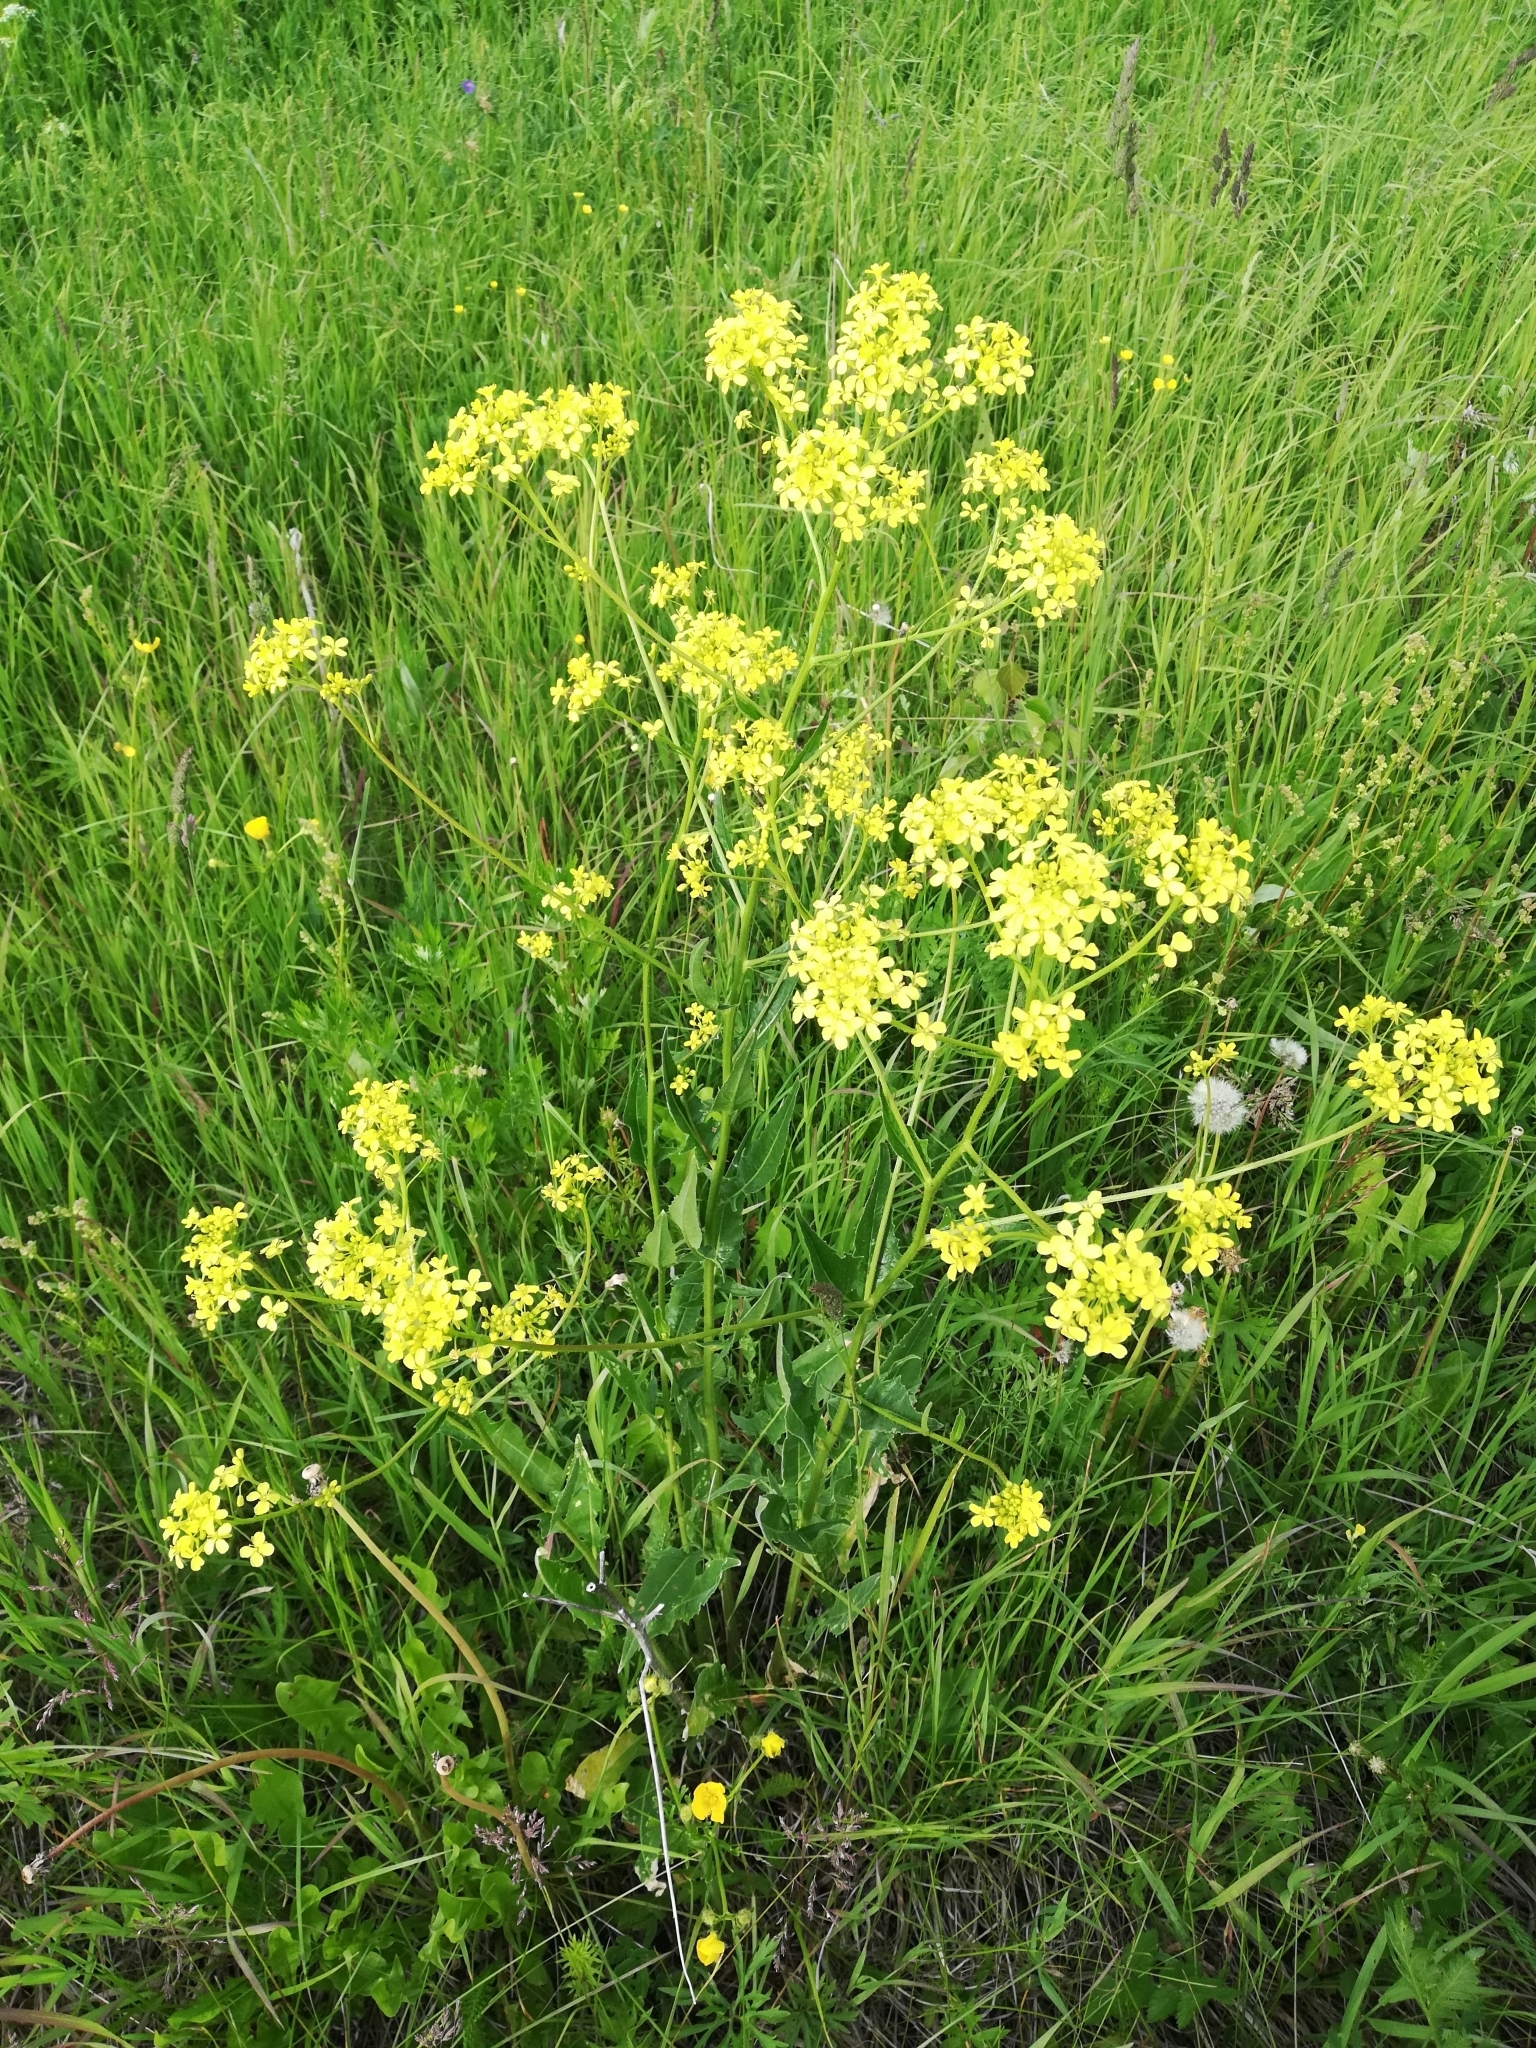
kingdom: Plantae
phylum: Tracheophyta
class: Magnoliopsida
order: Brassicales
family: Brassicaceae
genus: Bunias
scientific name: Bunias orientalis
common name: Warty-cabbage
